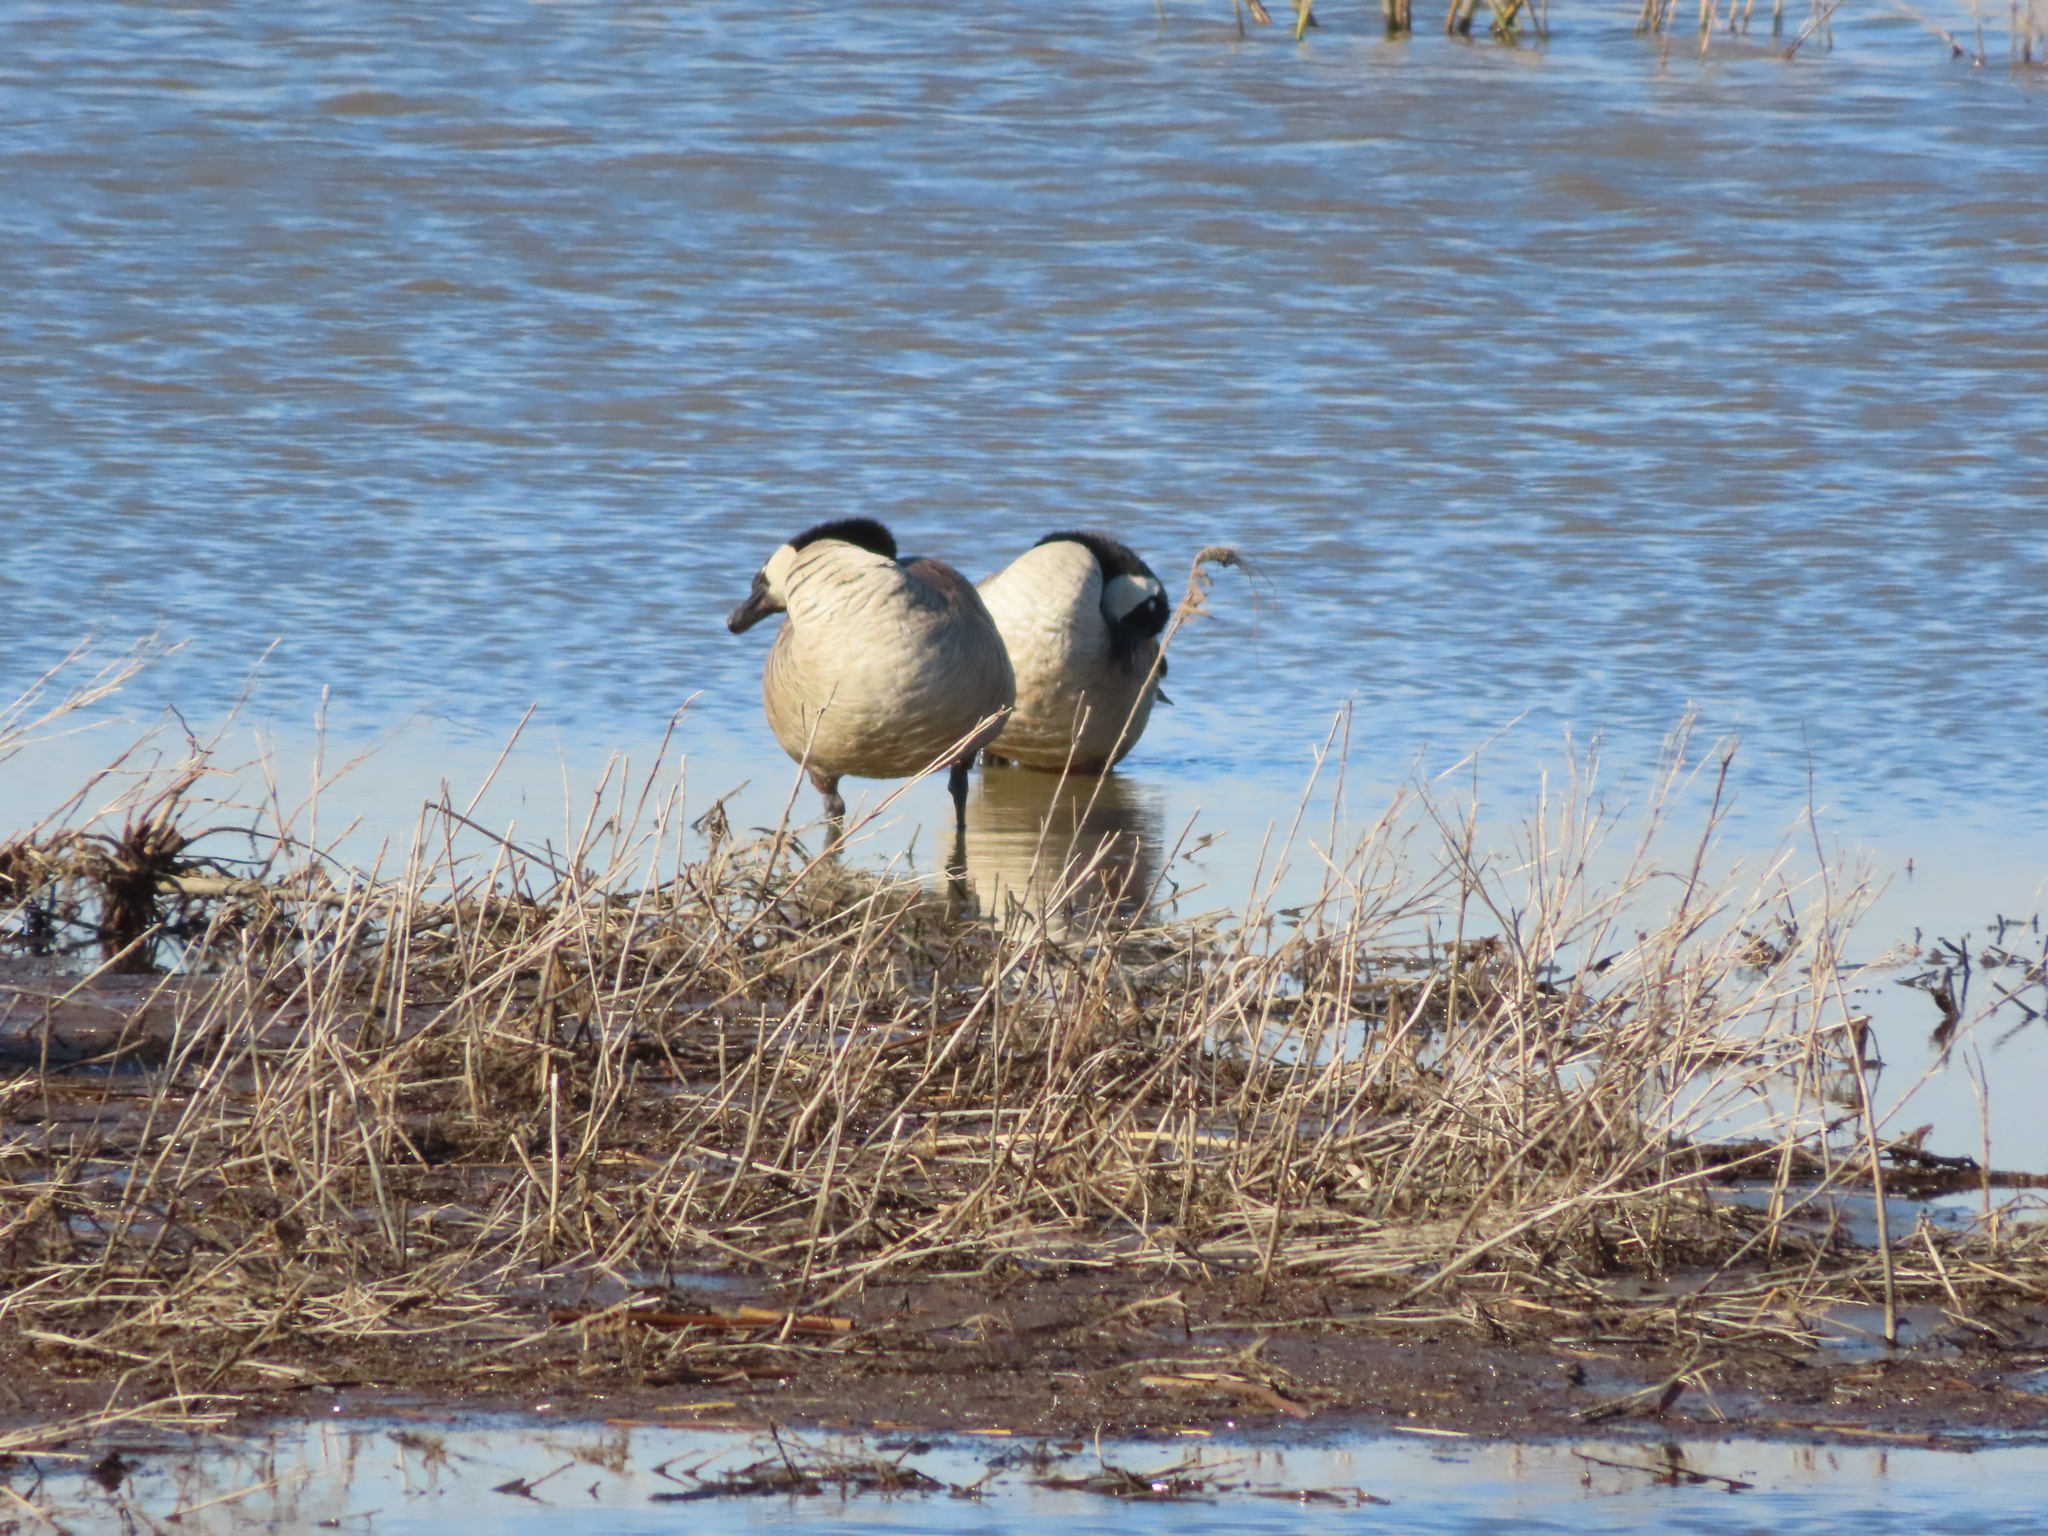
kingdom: Animalia
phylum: Chordata
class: Aves
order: Anseriformes
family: Anatidae
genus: Branta
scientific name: Branta canadensis
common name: Canada goose
